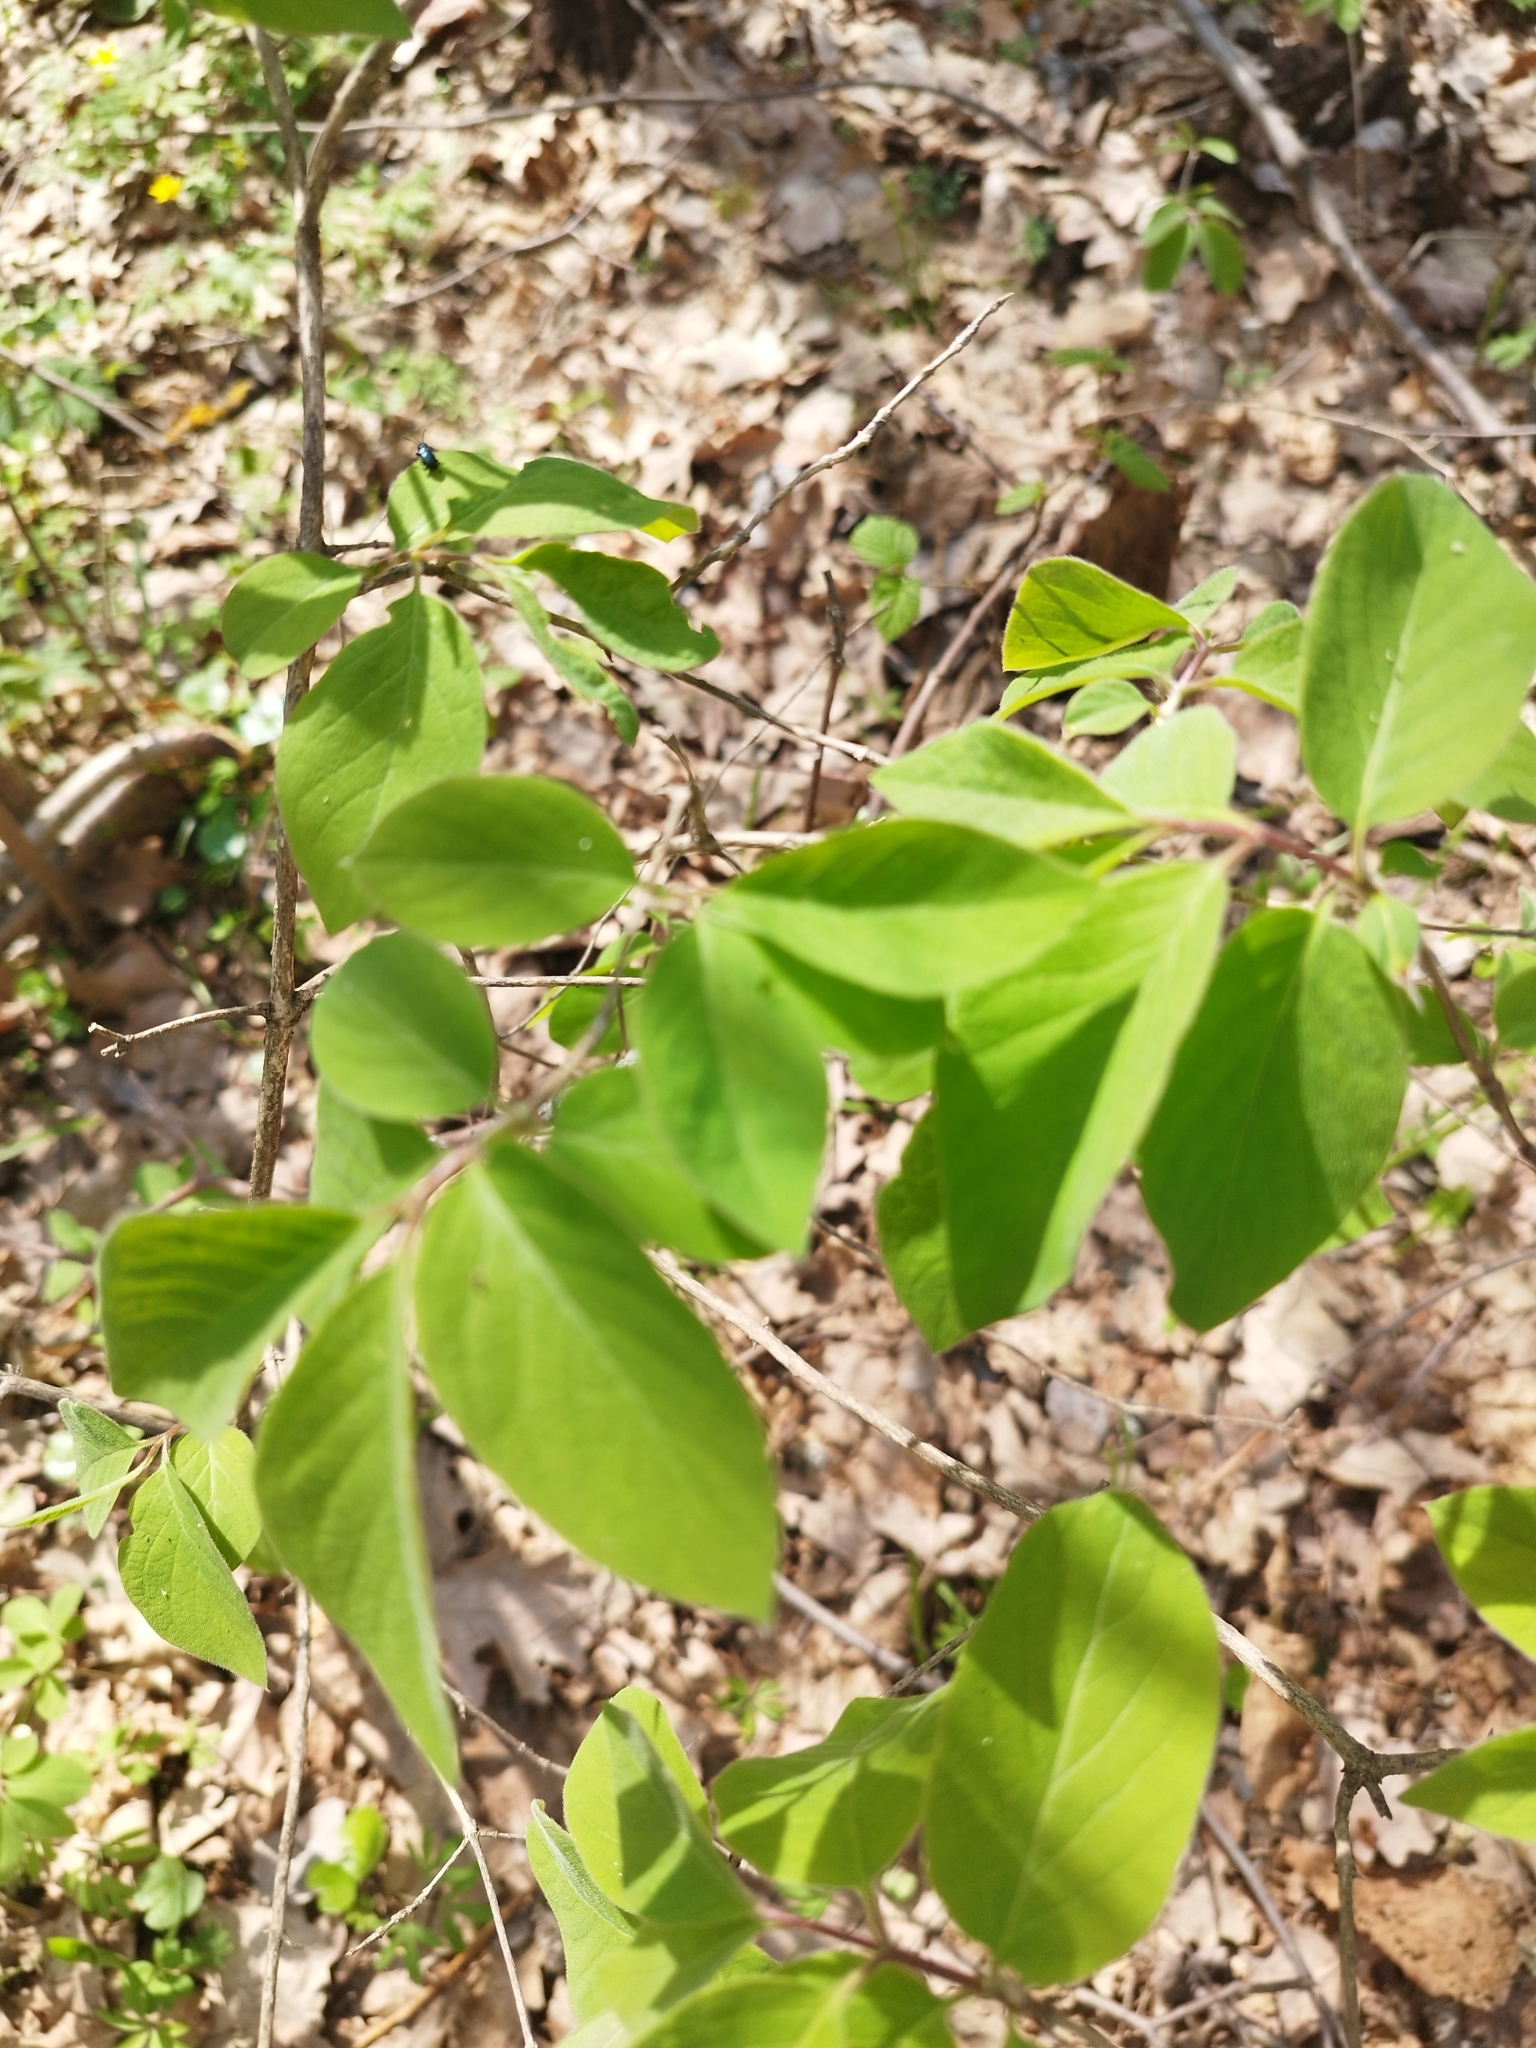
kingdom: Plantae
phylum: Tracheophyta
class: Magnoliopsida
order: Dipsacales
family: Caprifoliaceae
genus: Lonicera
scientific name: Lonicera xylosteum
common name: Fly honeysuckle
